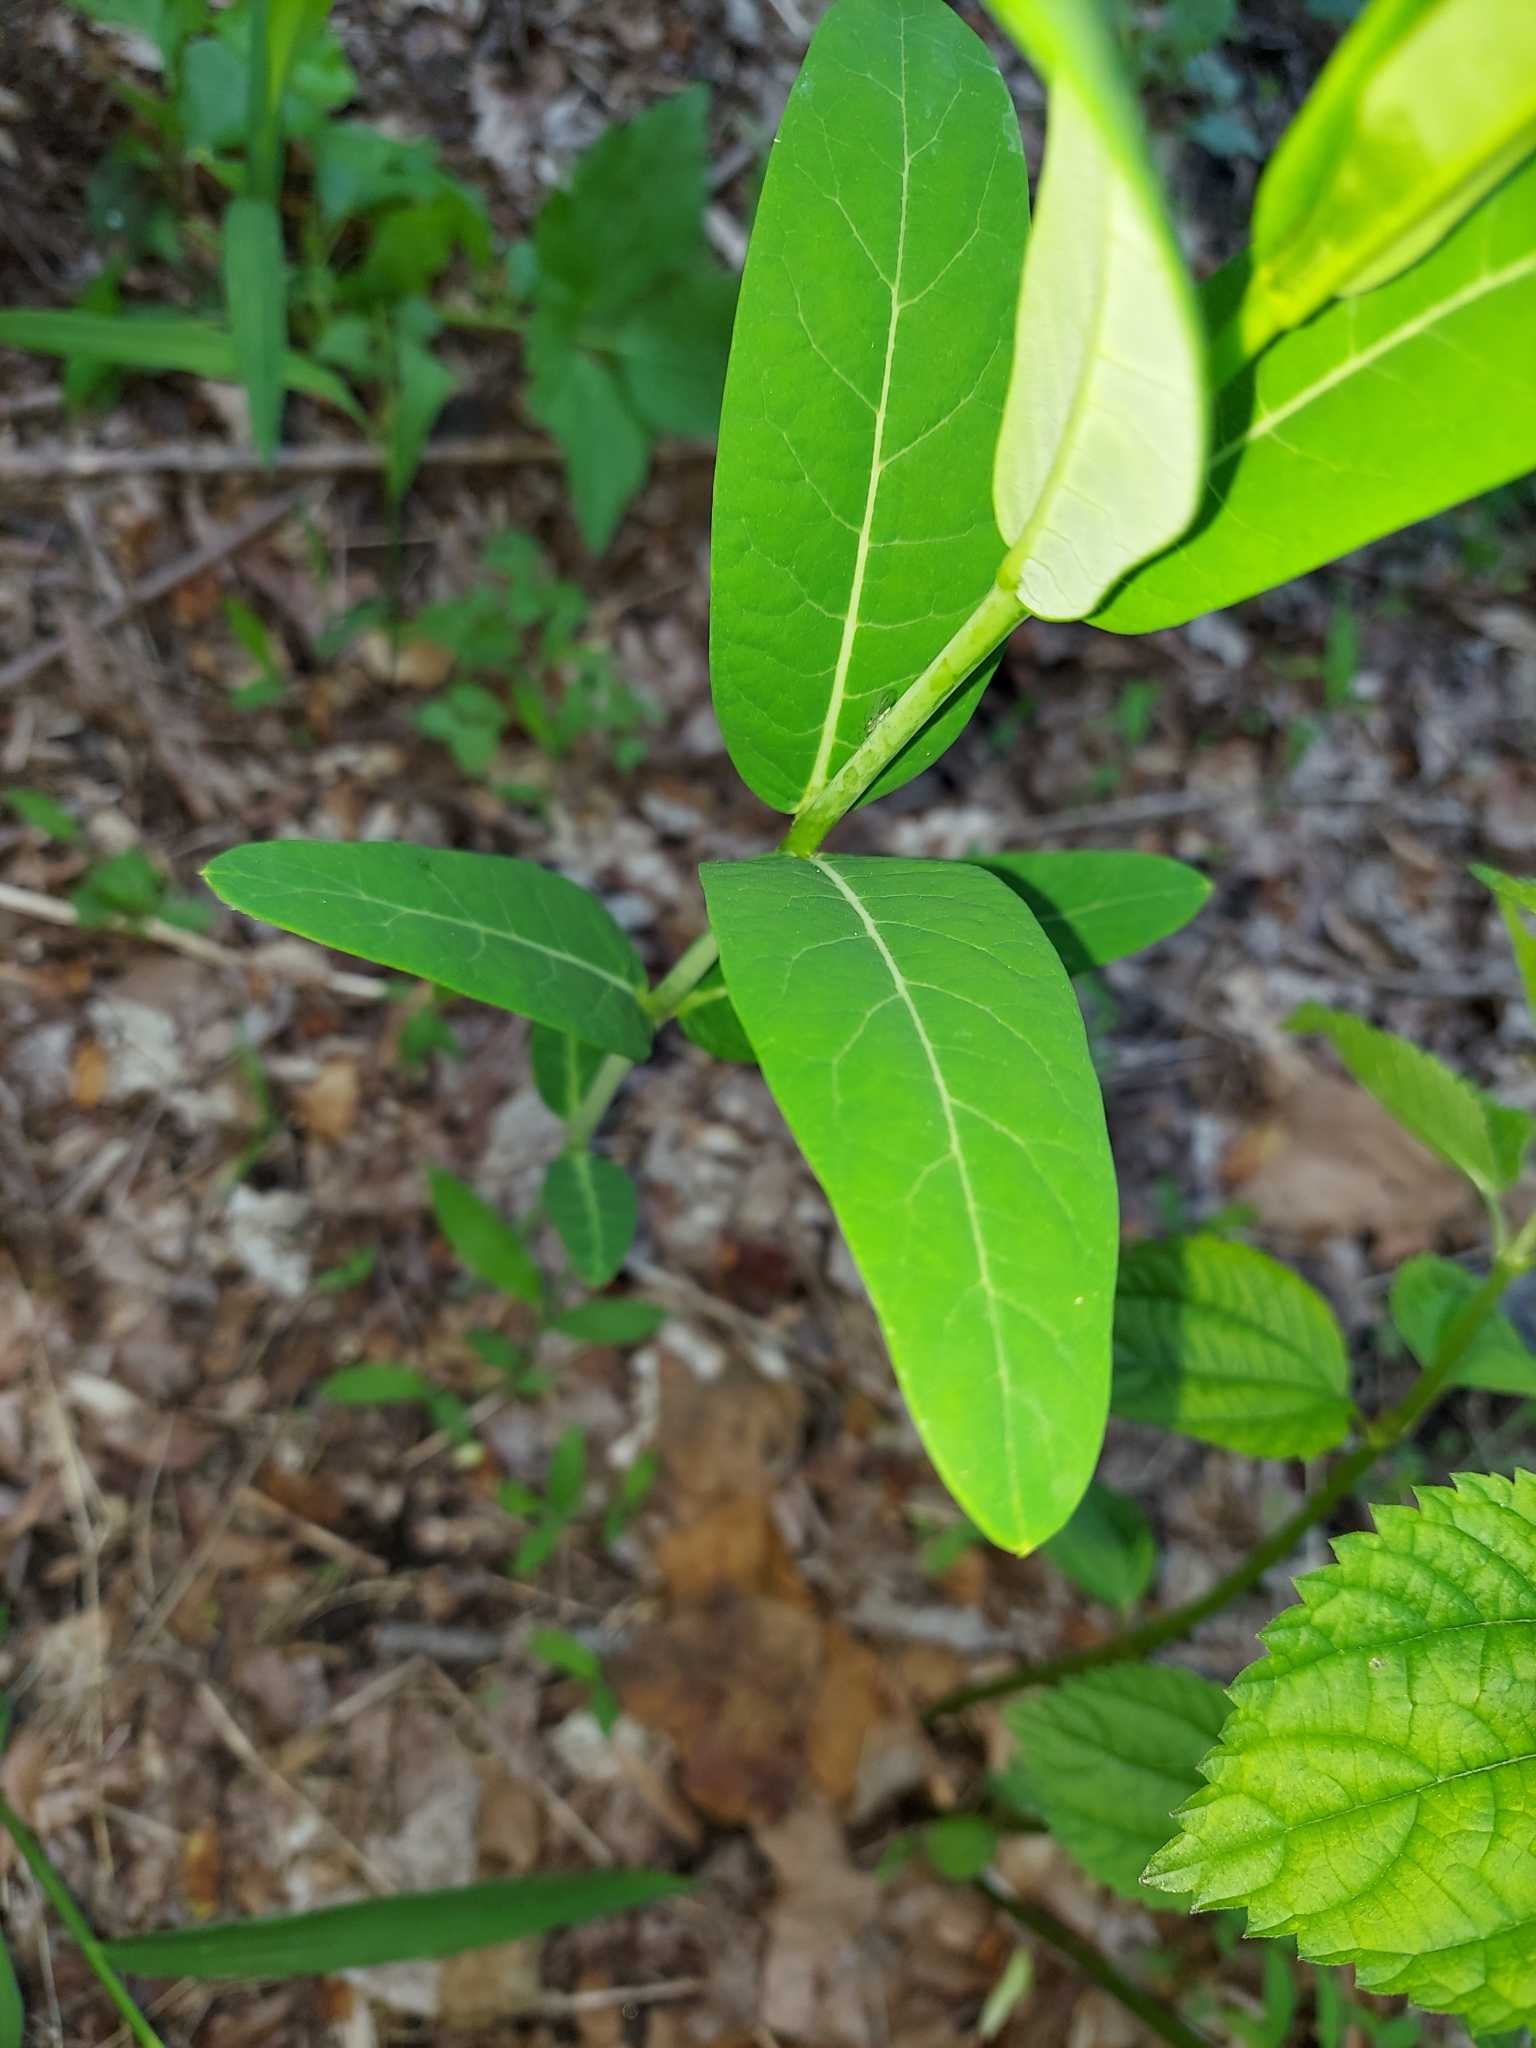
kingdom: Plantae
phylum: Tracheophyta
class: Magnoliopsida
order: Gentianales
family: Apocynaceae
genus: Apocynum
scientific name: Apocynum cannabinum
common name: Hemp dogbane
